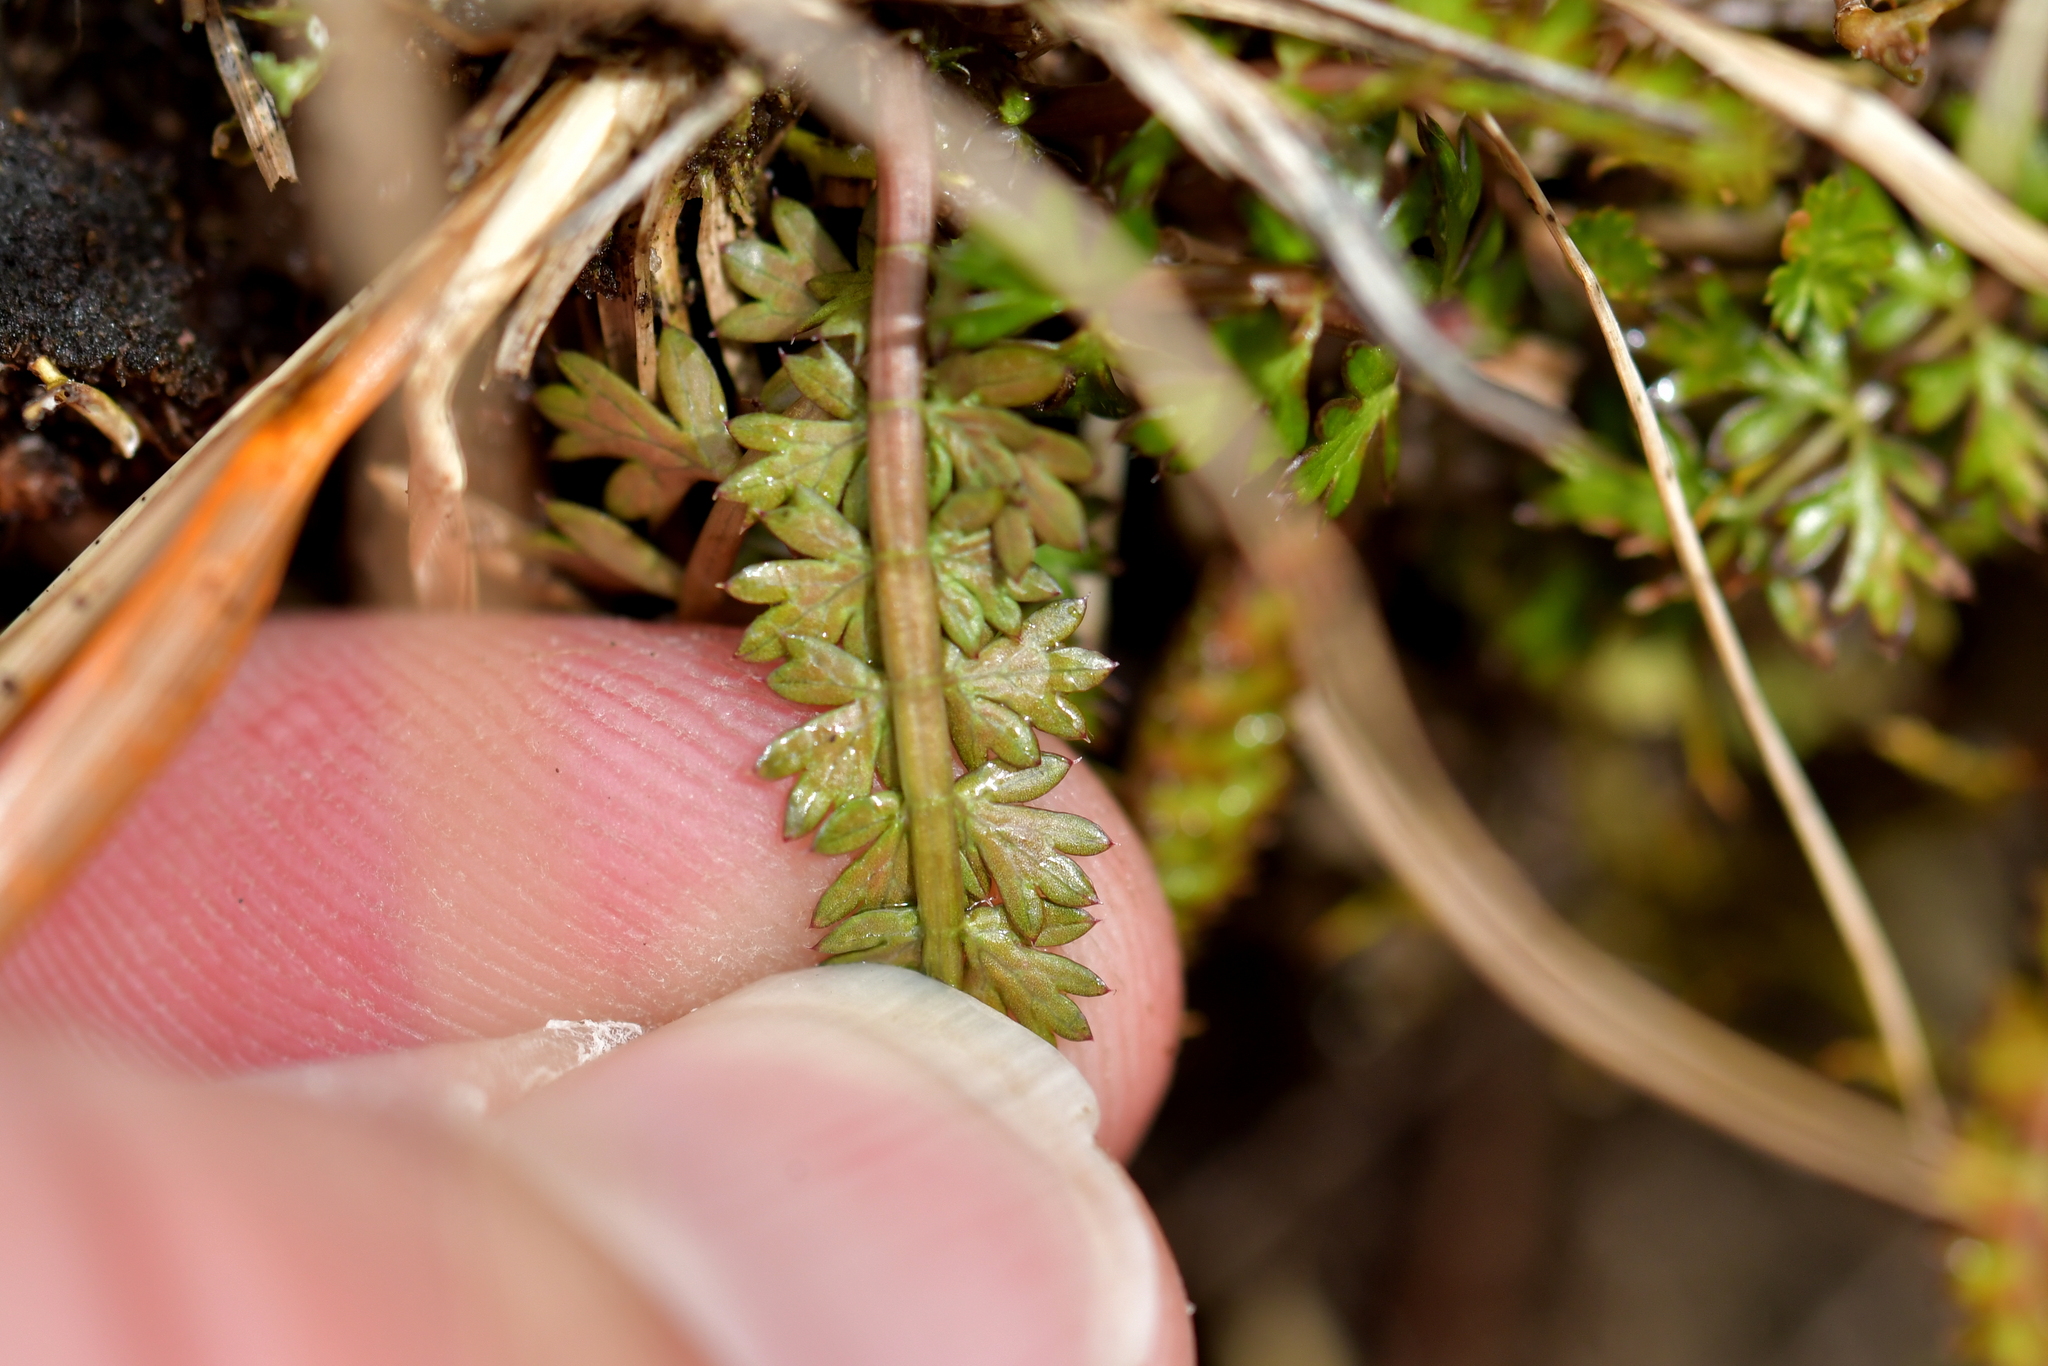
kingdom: Plantae
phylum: Tracheophyta
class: Magnoliopsida
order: Apiales
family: Apiaceae
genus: Anisotome
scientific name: Anisotome aromatica
